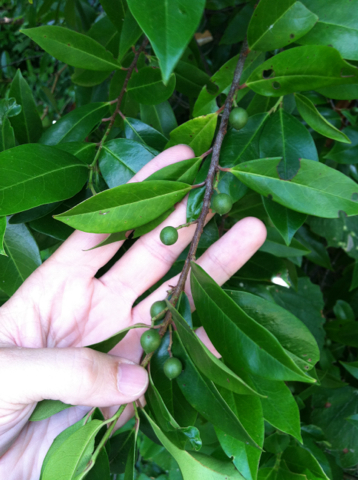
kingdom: Plantae
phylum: Tracheophyta
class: Magnoliopsida
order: Rosales
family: Rosaceae
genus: Prunus
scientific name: Prunus caroliniana
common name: Carolina laurel cherry
